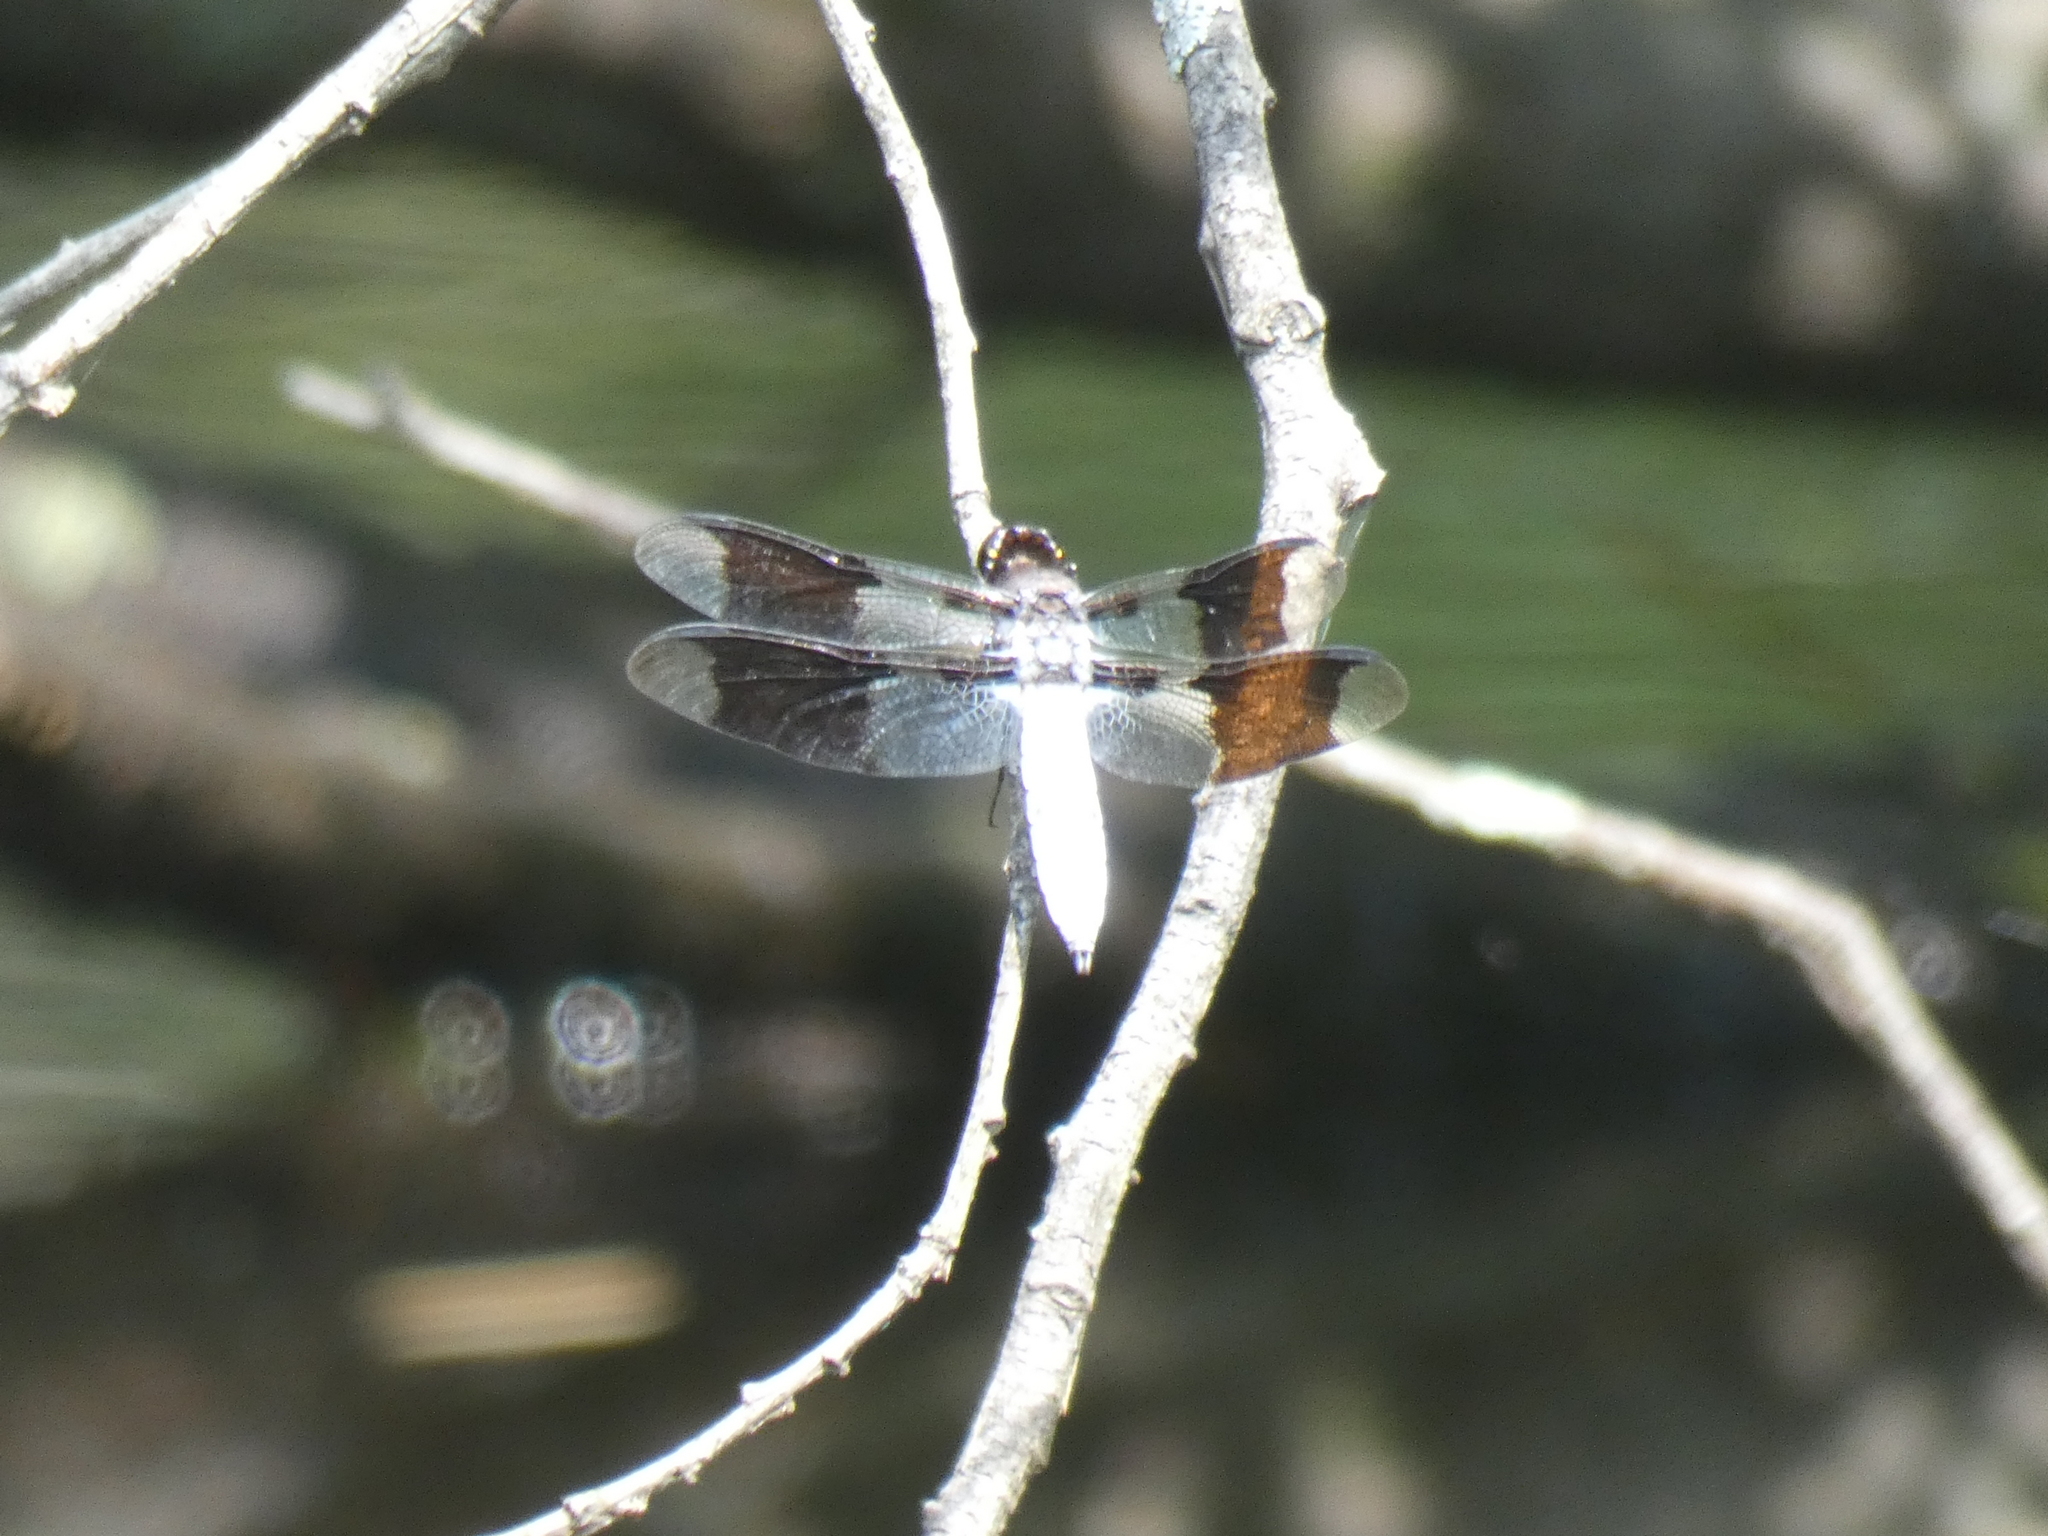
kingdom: Animalia
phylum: Arthropoda
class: Insecta
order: Odonata
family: Libellulidae
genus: Plathemis
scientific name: Plathemis lydia
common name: Common whitetail
